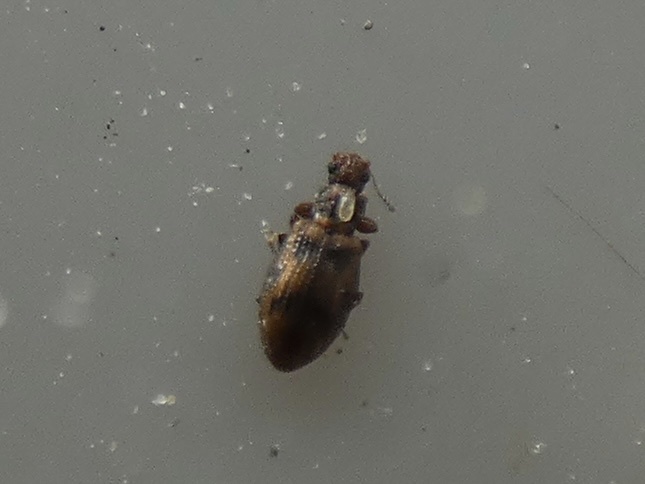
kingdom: Animalia
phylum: Arthropoda
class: Insecta
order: Coleoptera
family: Latridiidae
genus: Cartodere
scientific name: Cartodere bifasciata
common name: Plaster beetle
